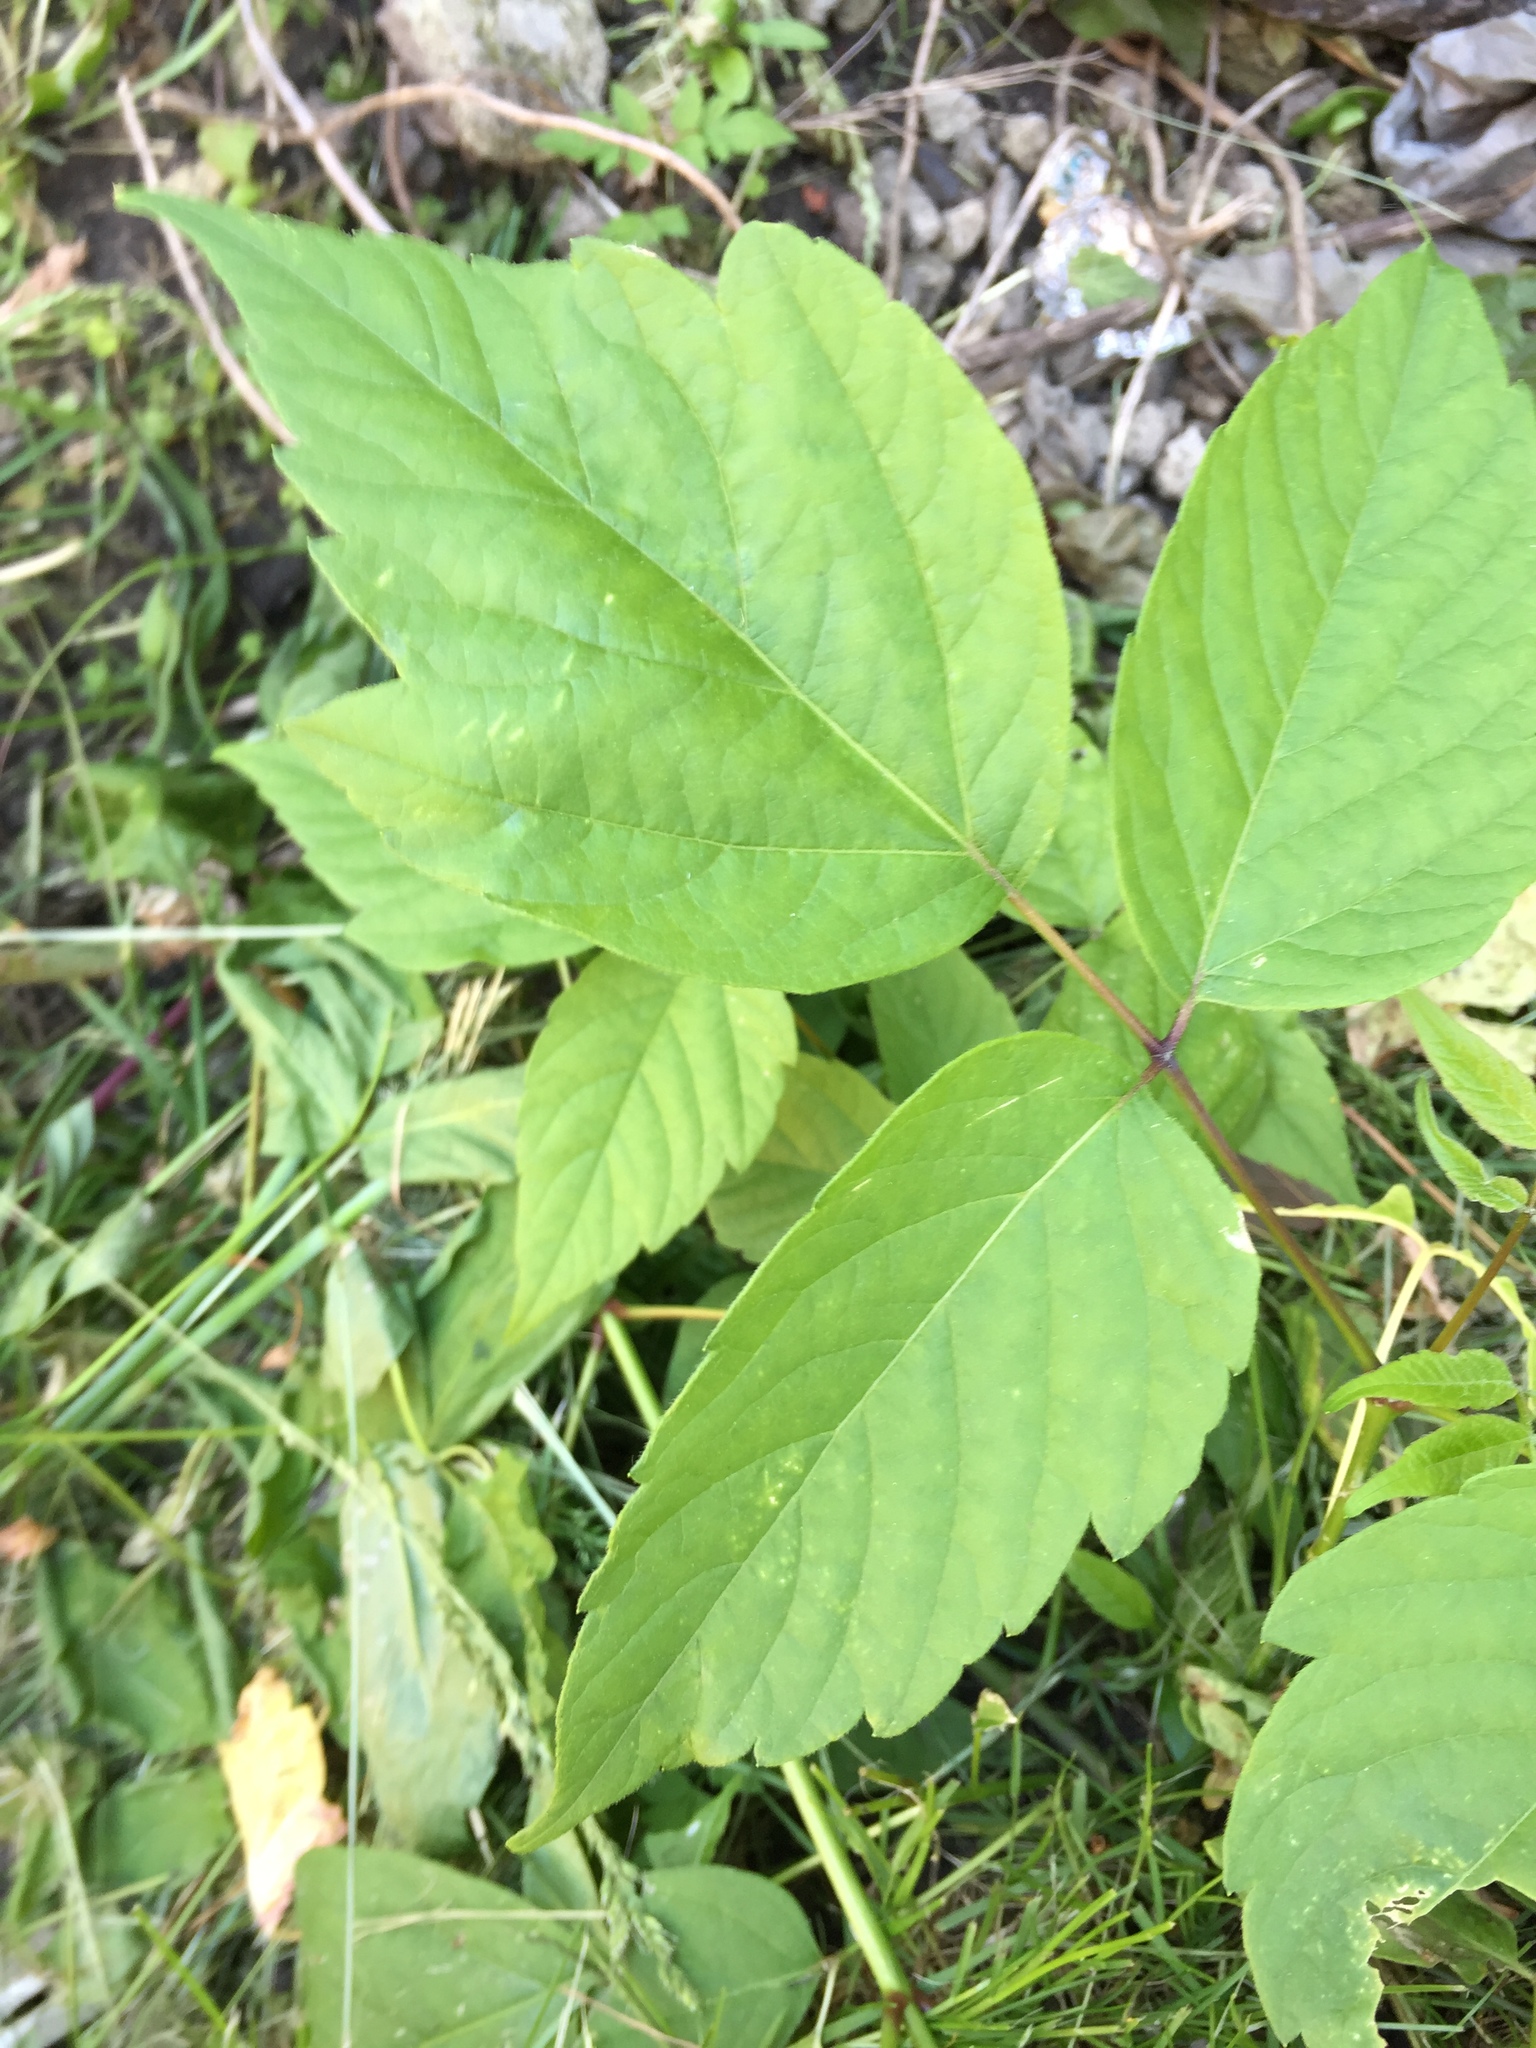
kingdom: Plantae
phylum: Tracheophyta
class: Magnoliopsida
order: Sapindales
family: Sapindaceae
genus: Acer
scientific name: Acer negundo
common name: Ashleaf maple
